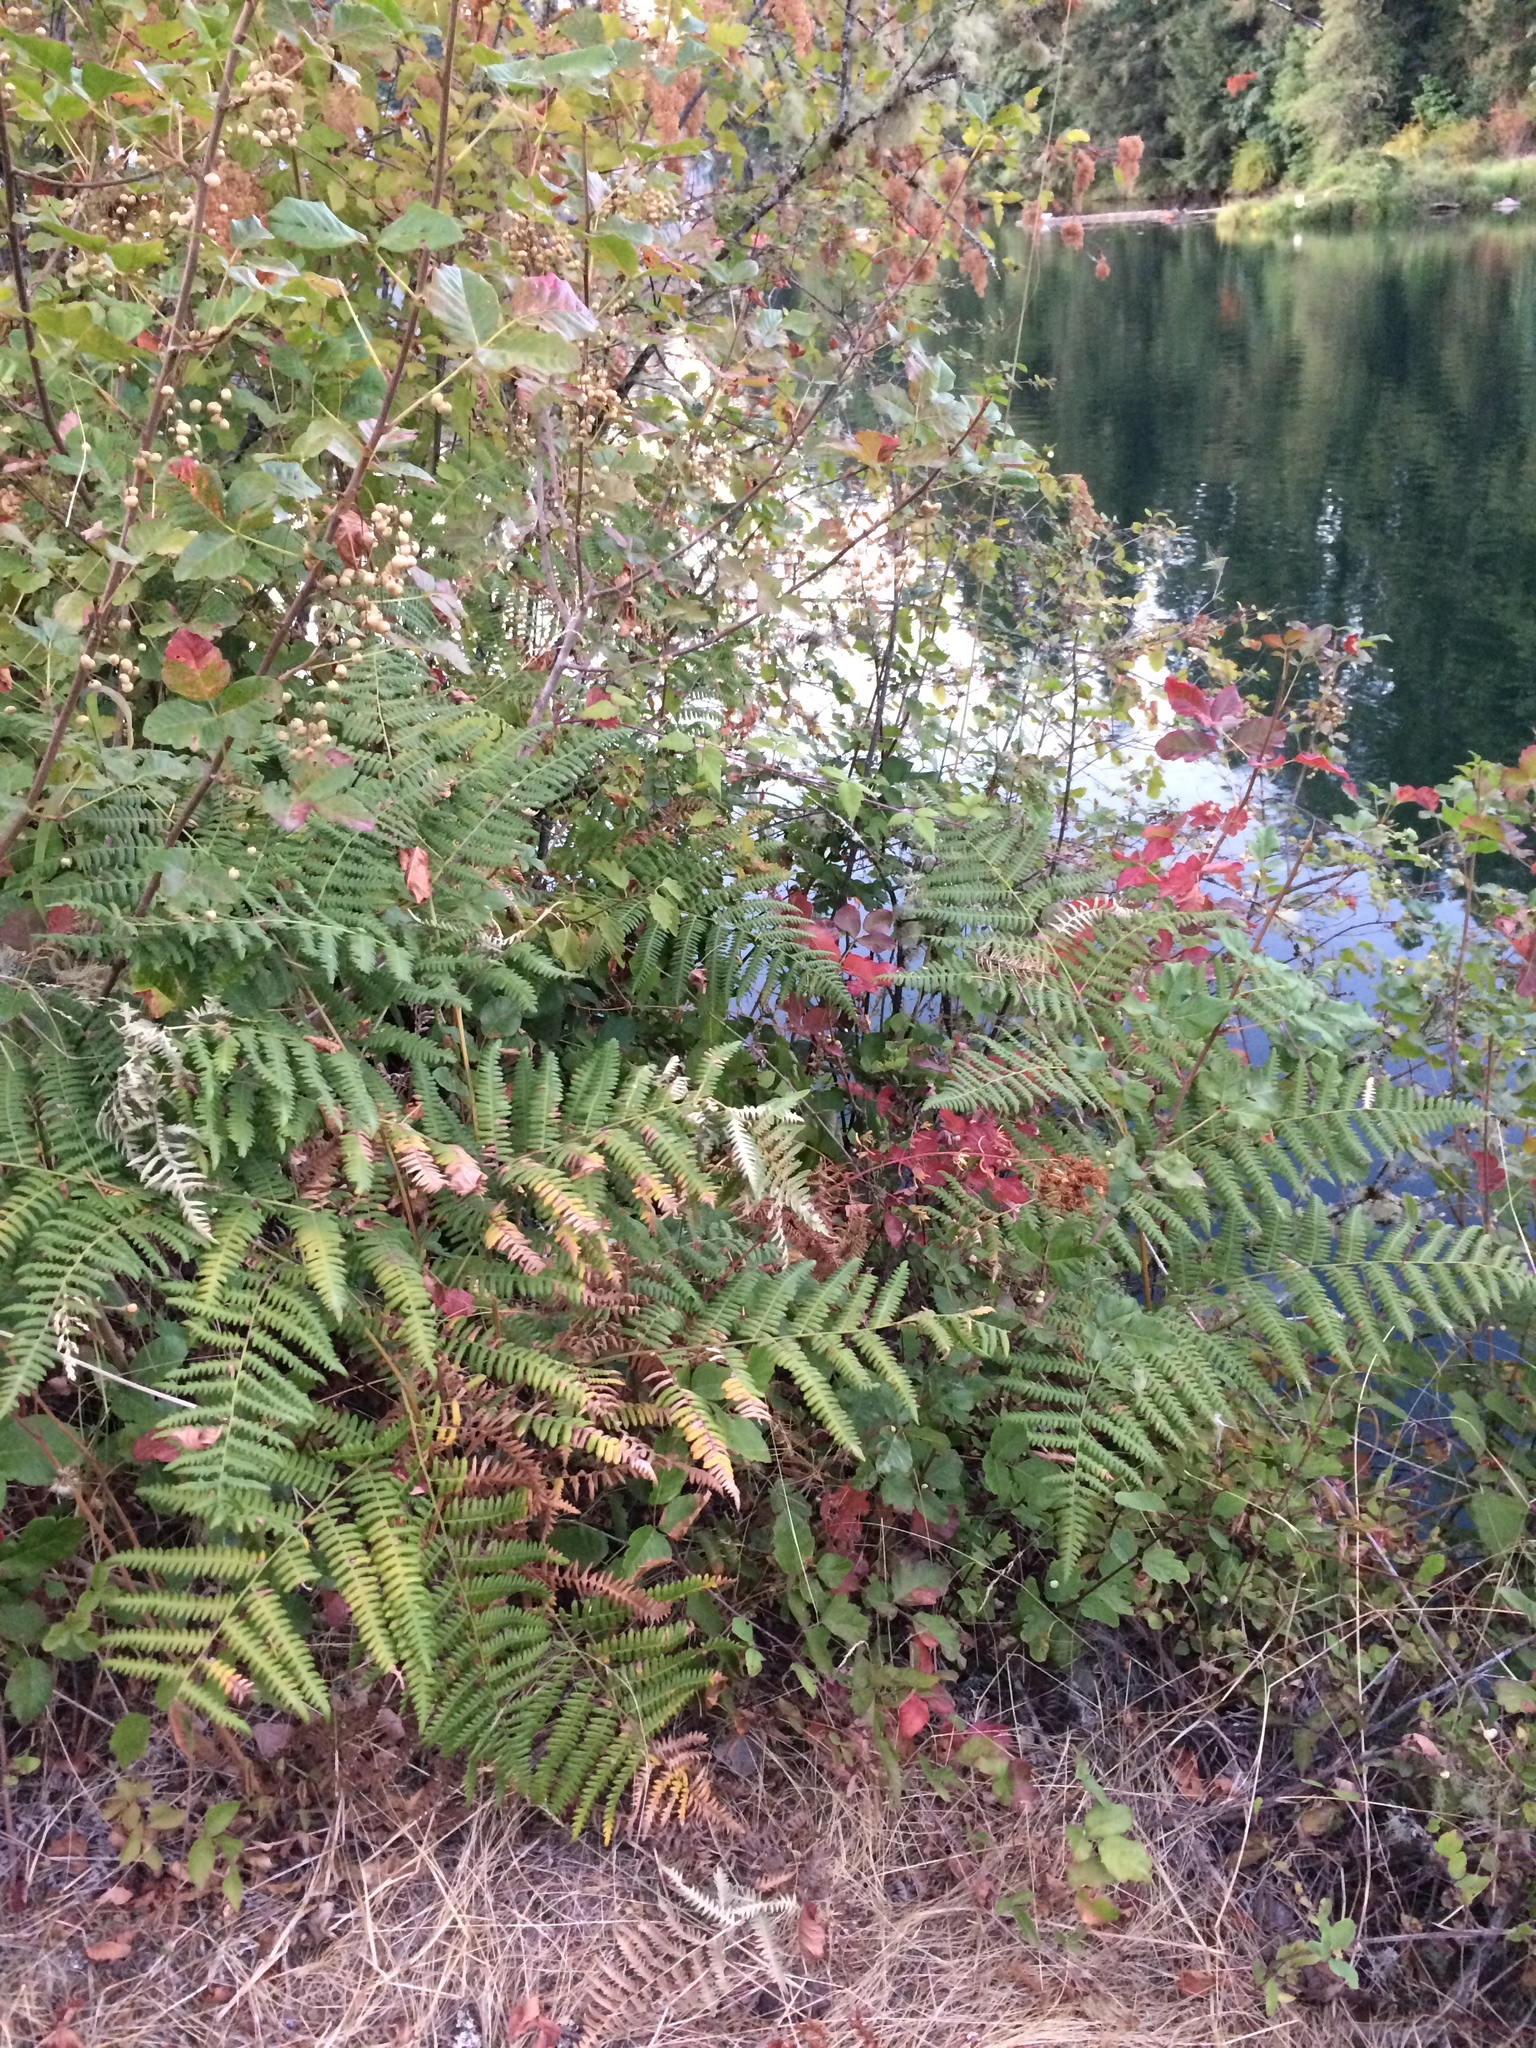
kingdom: Plantae
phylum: Tracheophyta
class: Polypodiopsida
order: Polypodiales
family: Dennstaedtiaceae
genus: Pteridium
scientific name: Pteridium aquilinum
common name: Bracken
